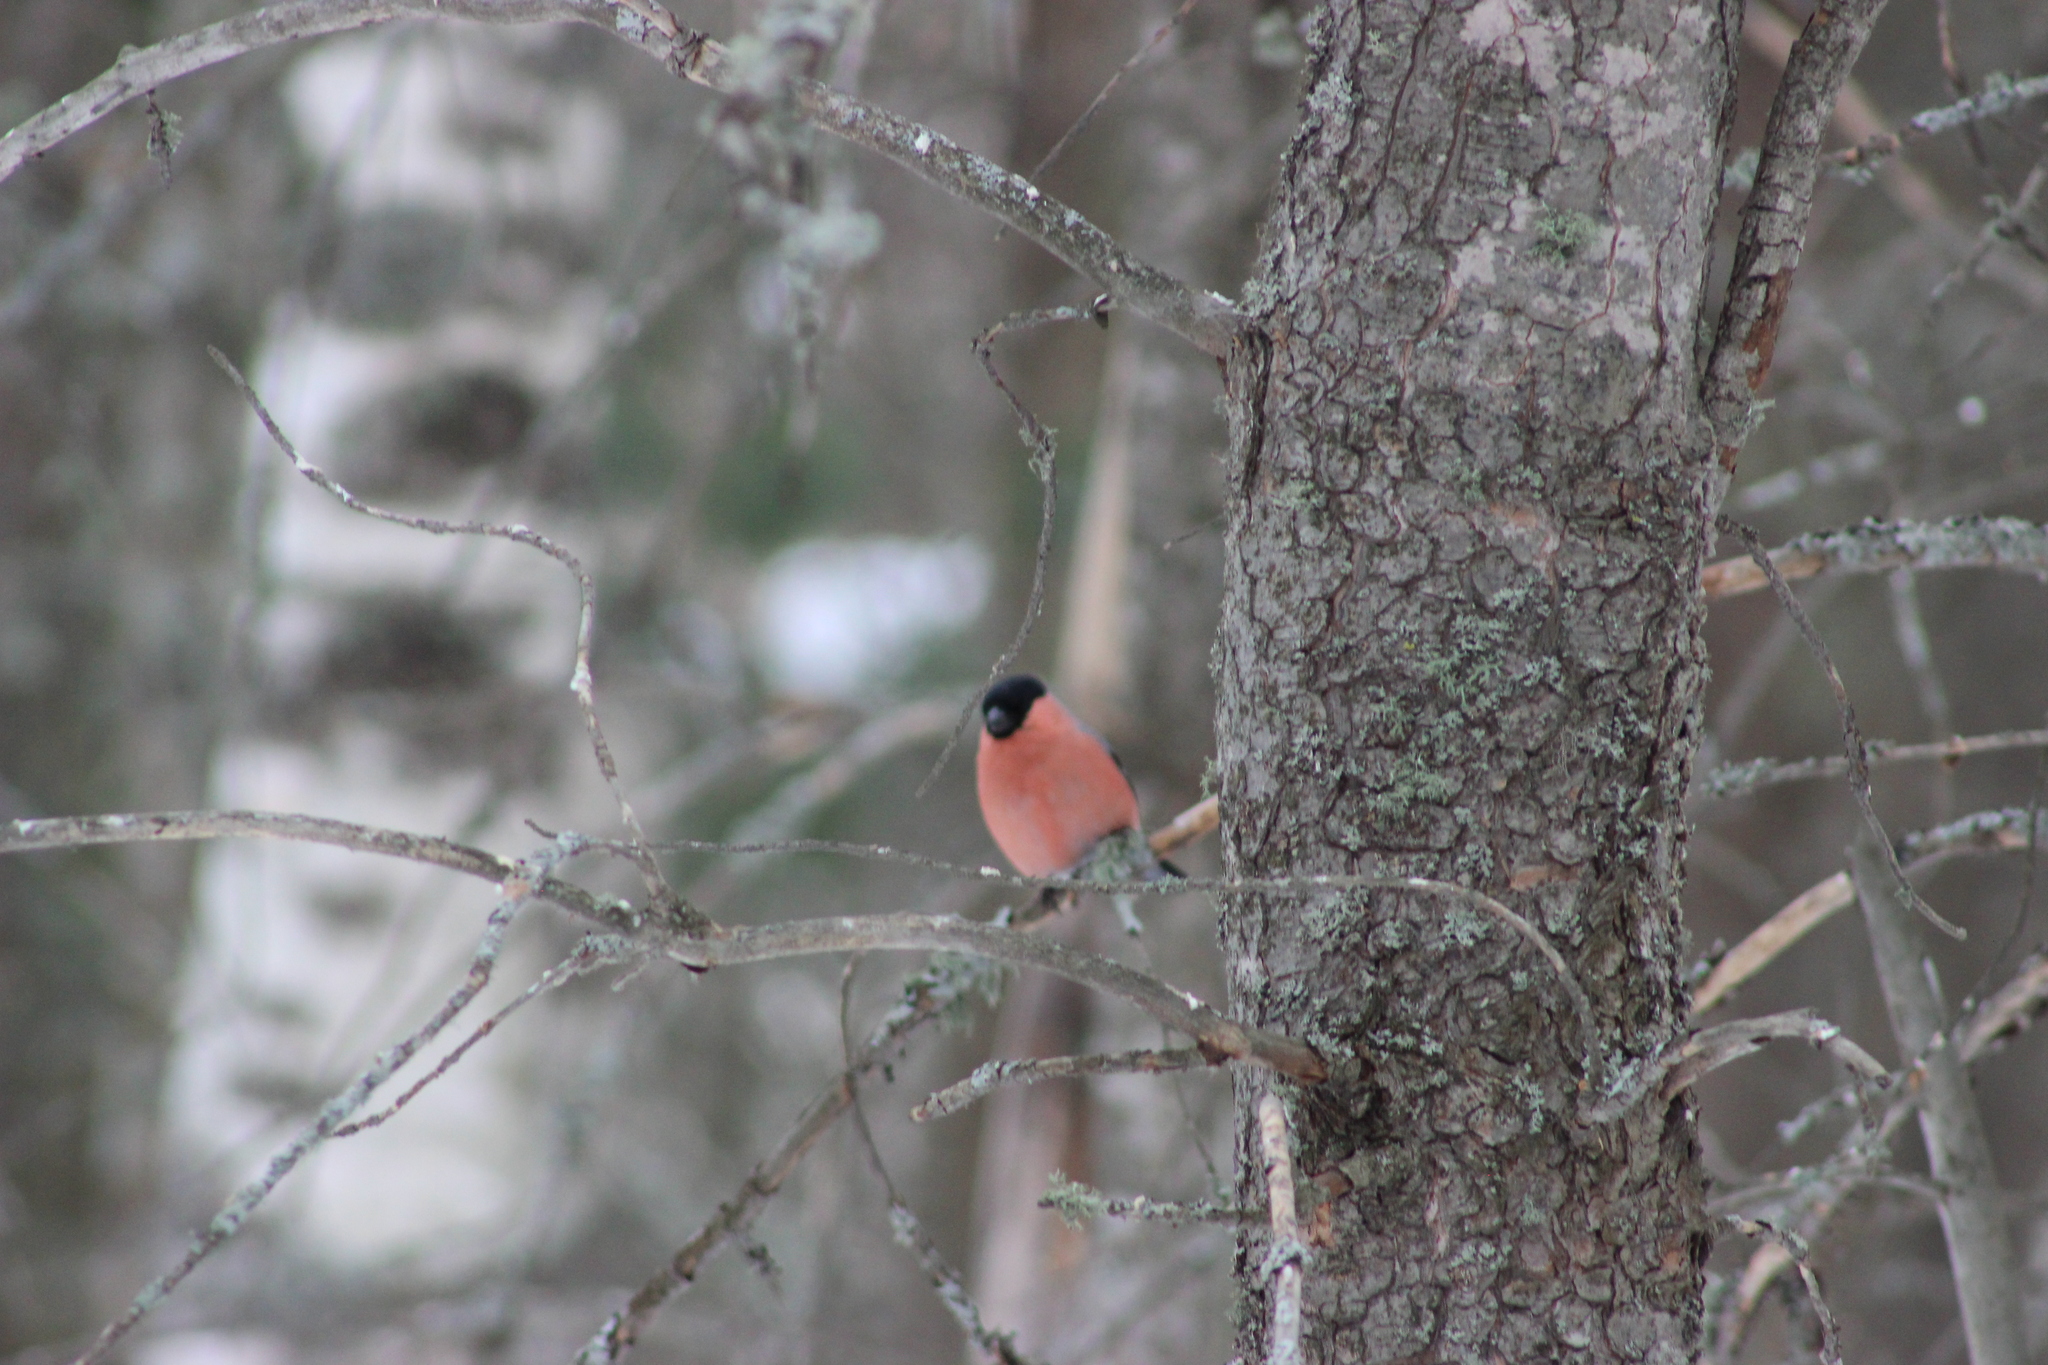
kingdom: Animalia
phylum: Chordata
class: Aves
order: Passeriformes
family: Fringillidae
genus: Pyrrhula
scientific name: Pyrrhula pyrrhula
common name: Eurasian bullfinch
